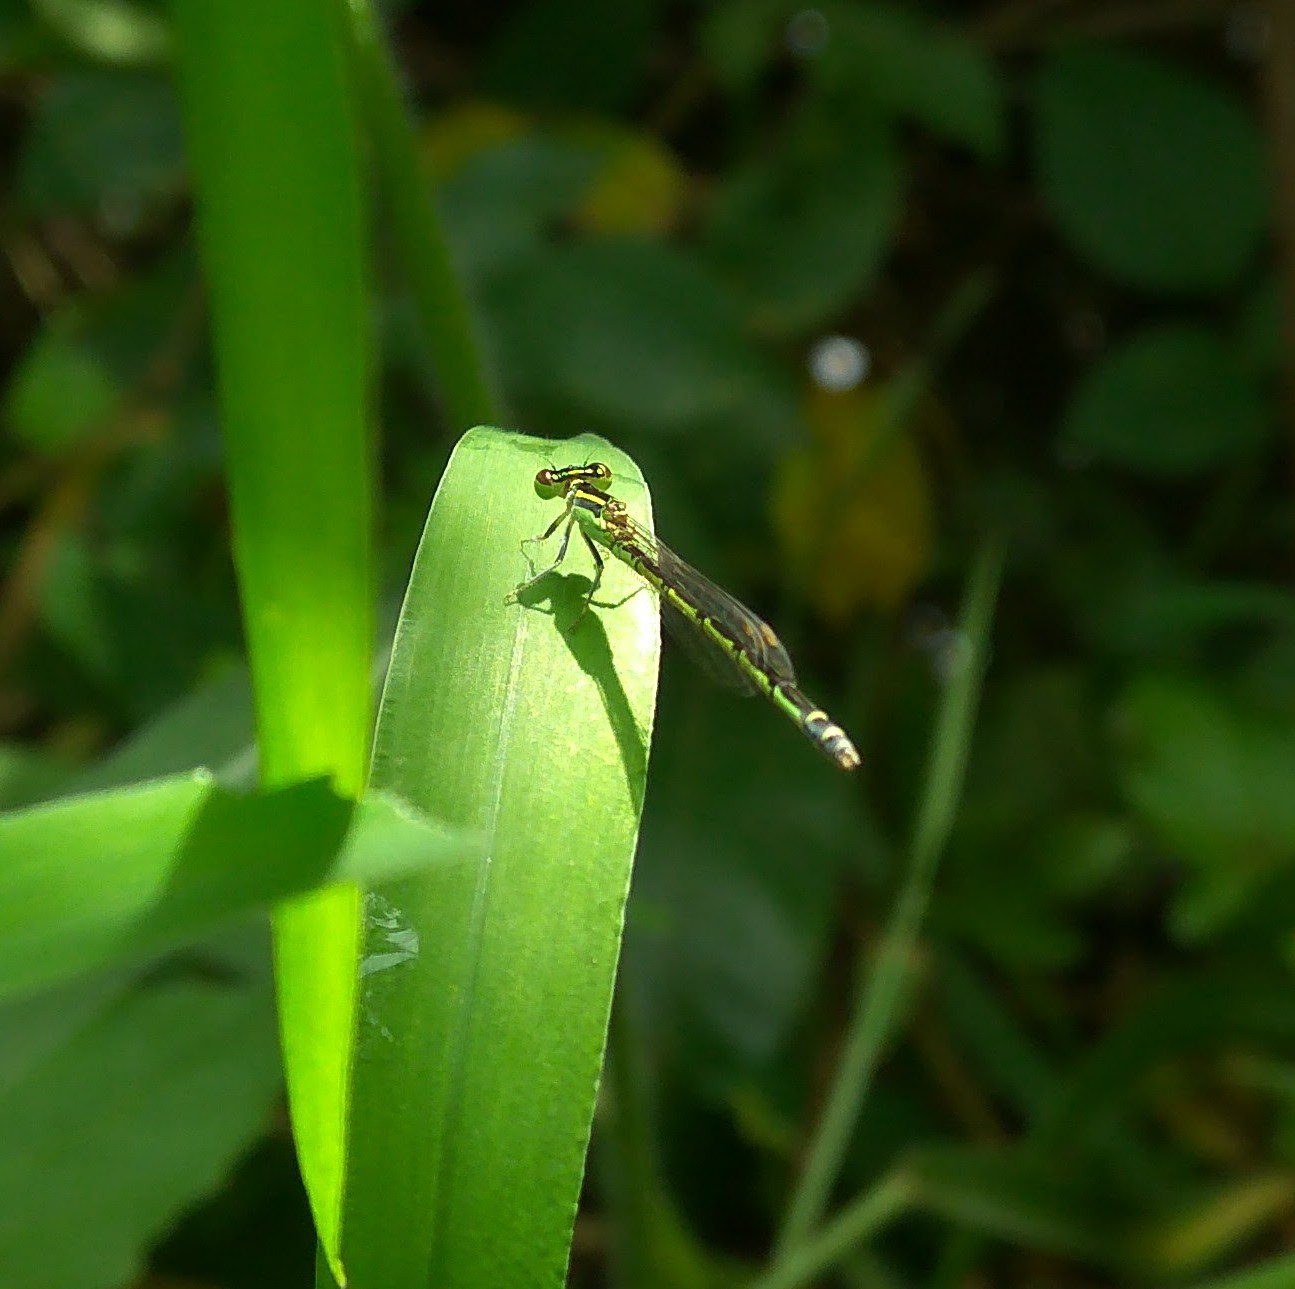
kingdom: Animalia
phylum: Arthropoda
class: Insecta
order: Odonata
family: Coenagrionidae
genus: Agriocnemis
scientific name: Agriocnemis keralensis
